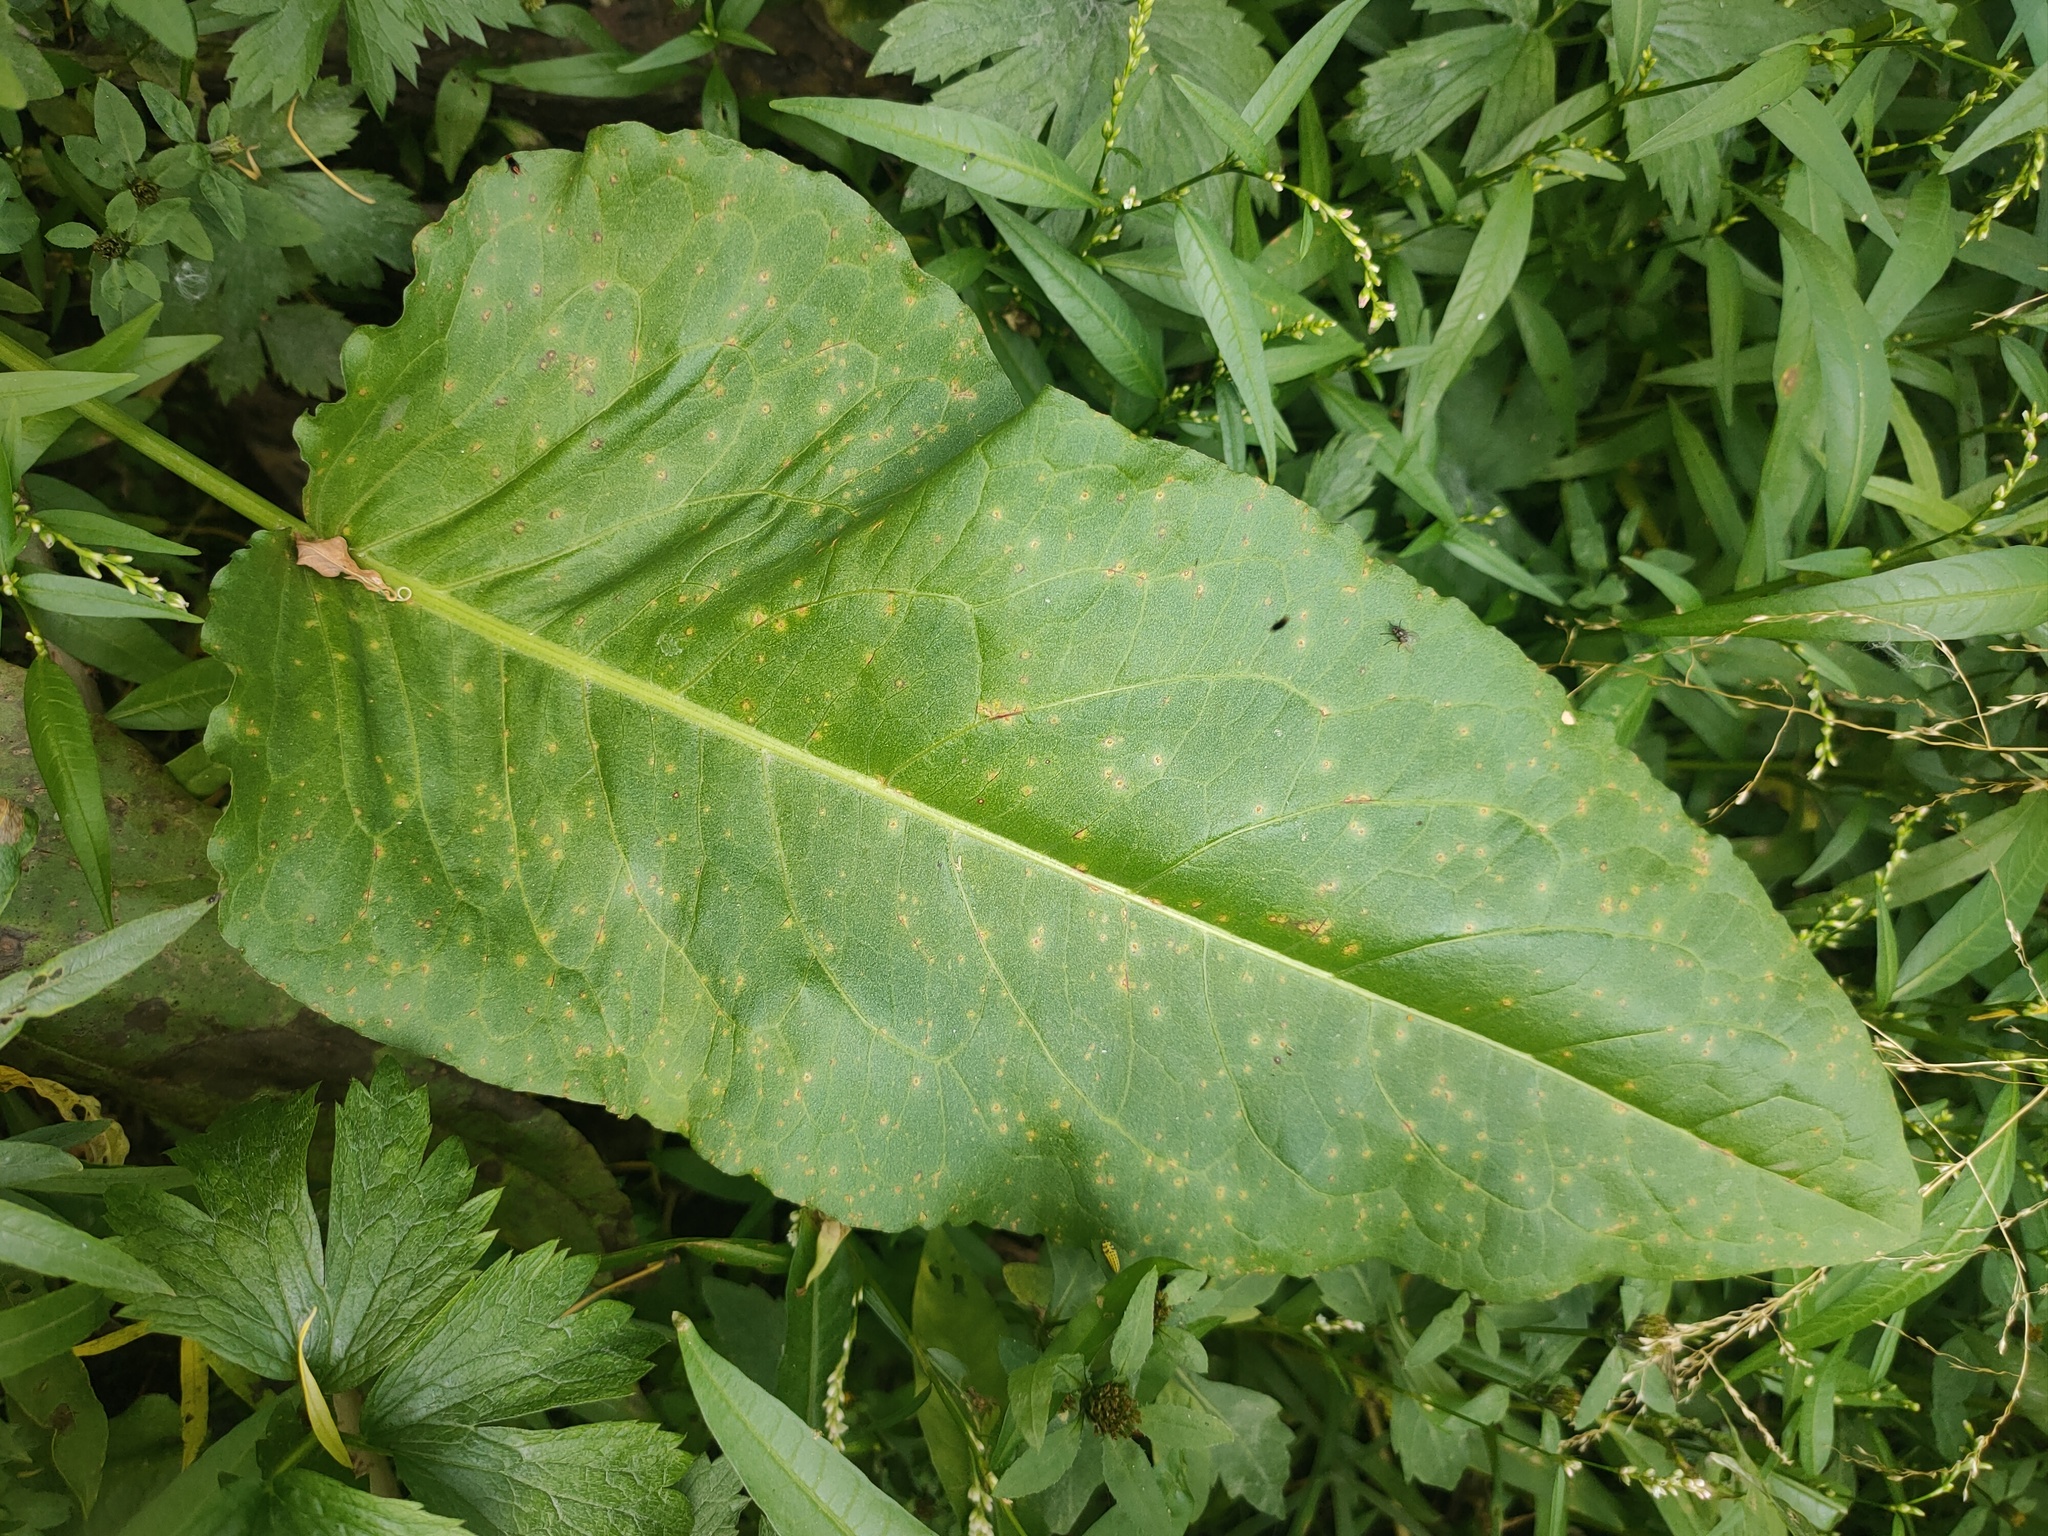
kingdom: Plantae
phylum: Tracheophyta
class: Magnoliopsida
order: Caryophyllales
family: Polygonaceae
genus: Rumex
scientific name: Rumex aquaticus
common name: Scottish dock
